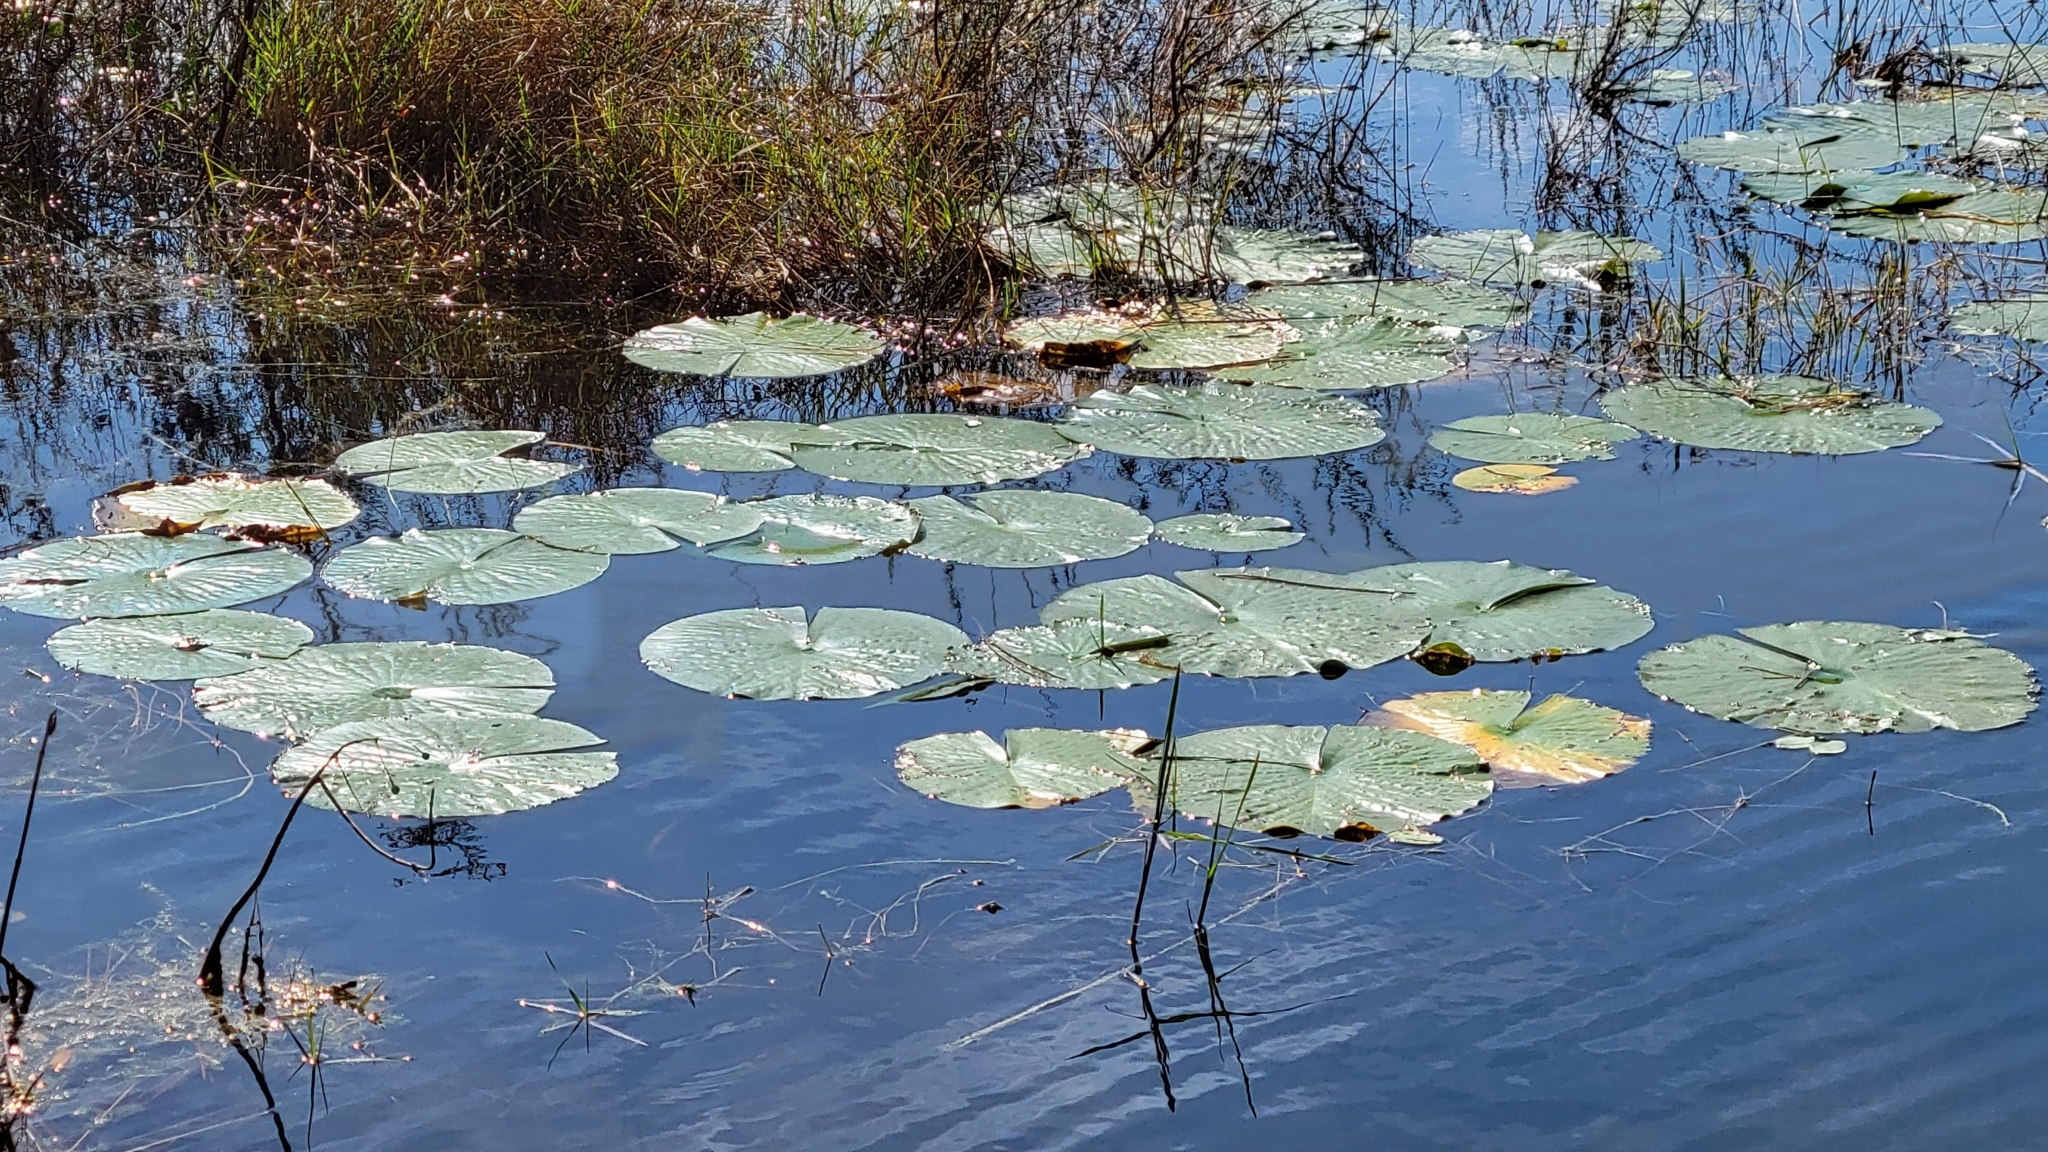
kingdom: Plantae
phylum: Tracheophyta
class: Magnoliopsida
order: Nymphaeales
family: Nymphaeaceae
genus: Nymphaea
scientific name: Nymphaea odorata
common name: Fragrant water-lily
